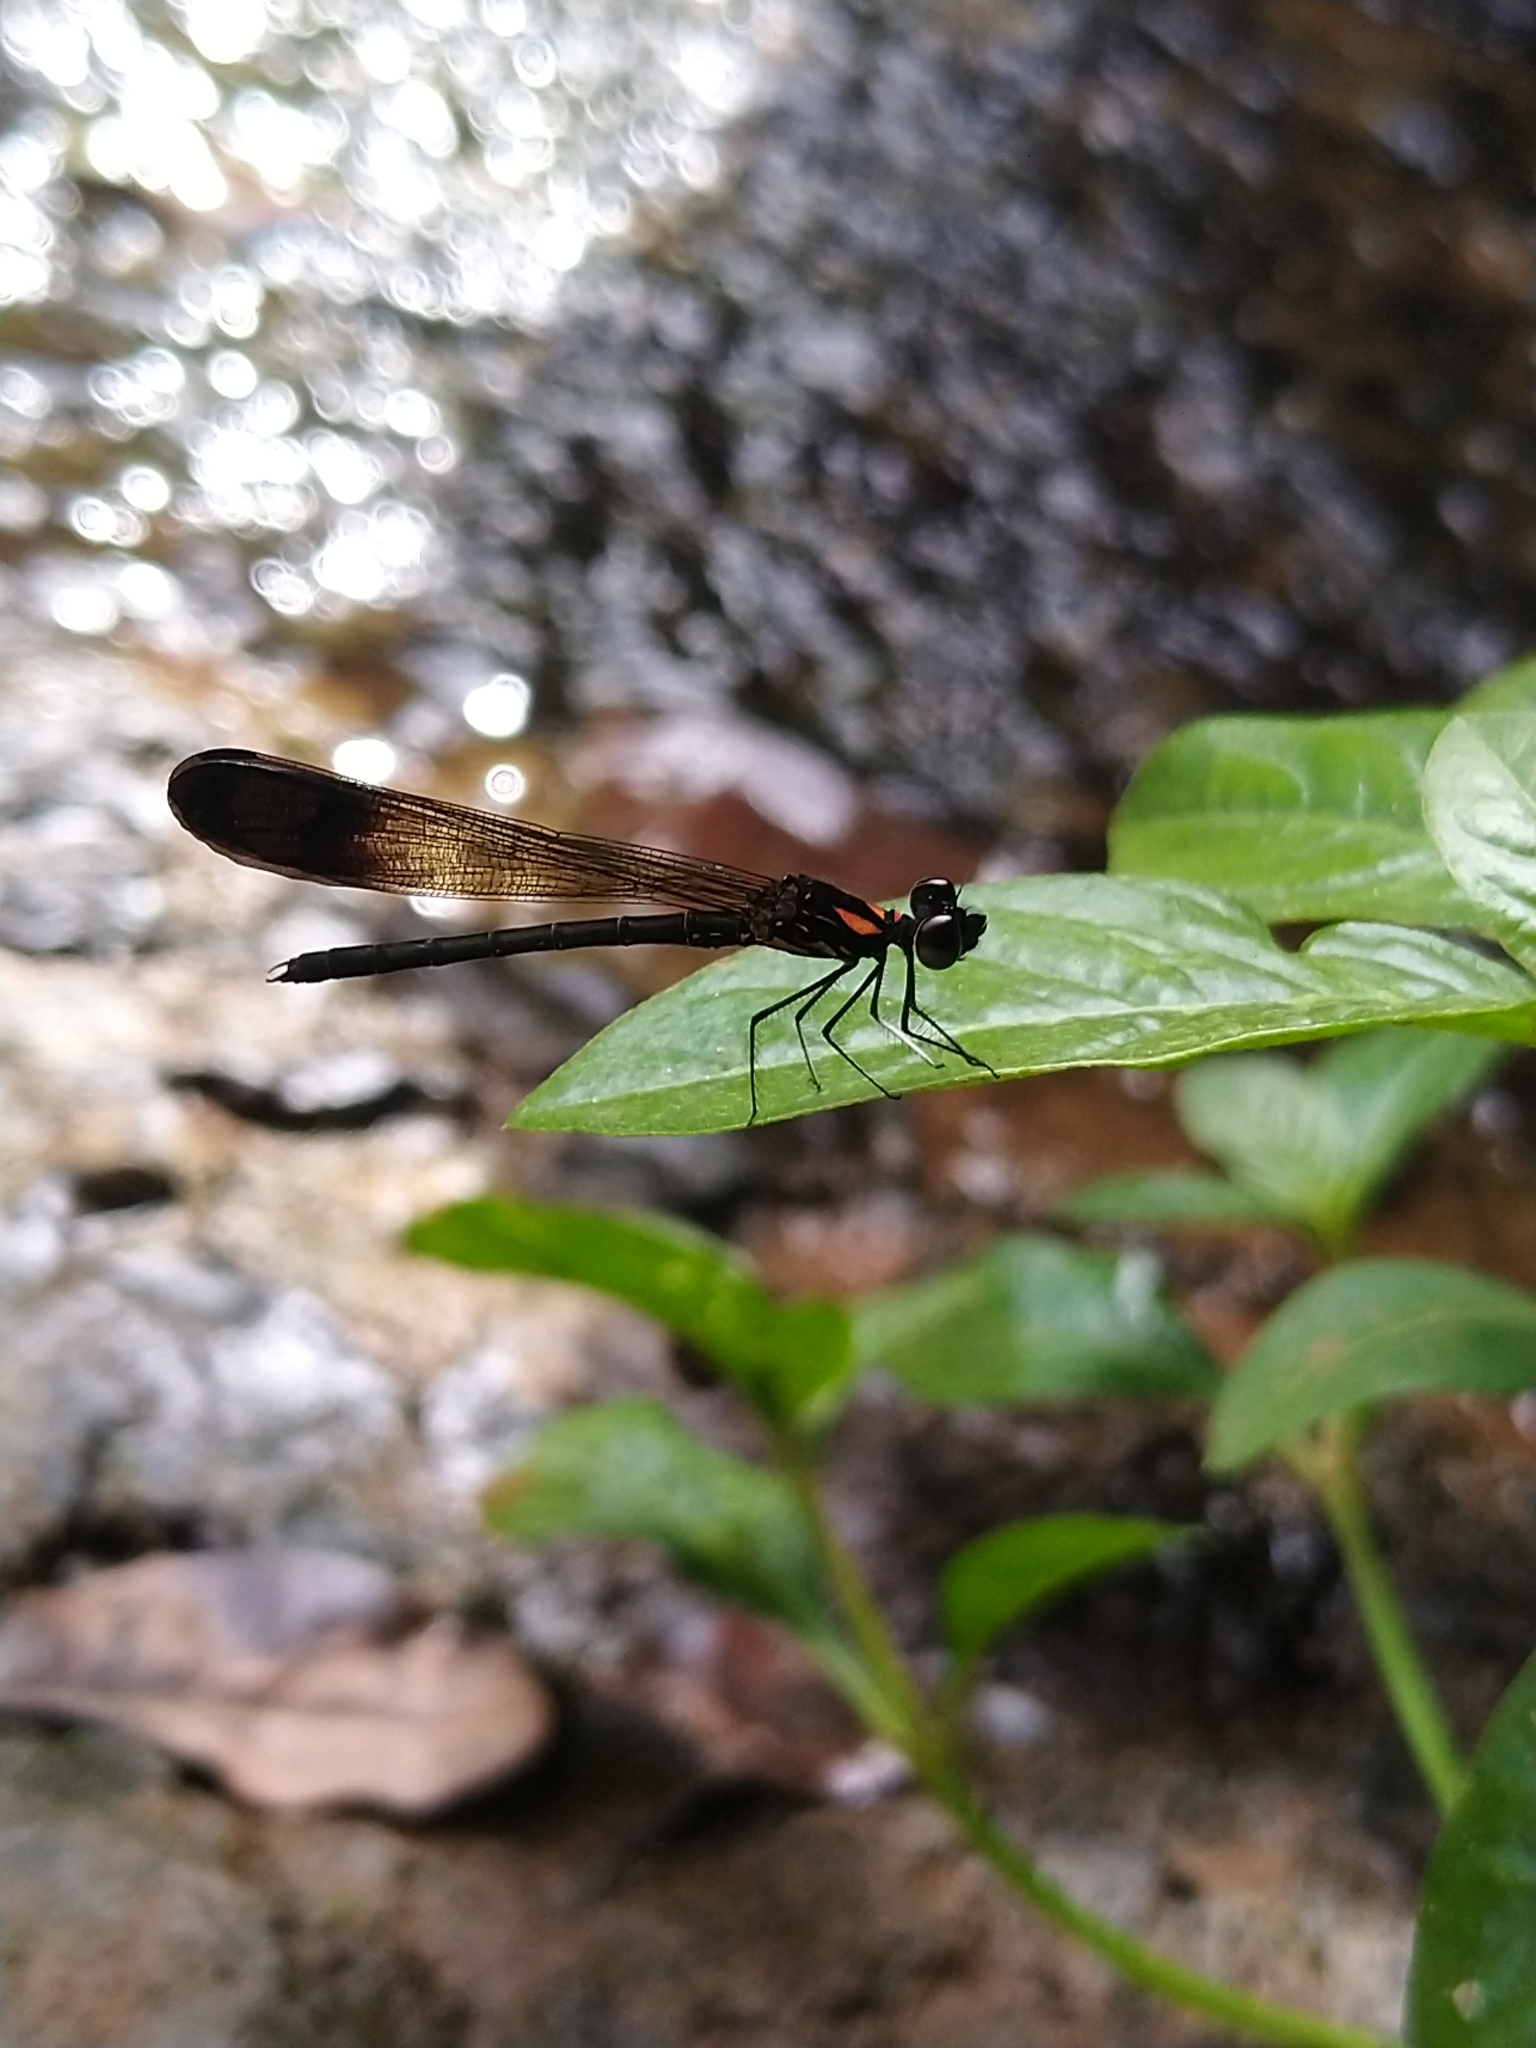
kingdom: Animalia
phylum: Arthropoda
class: Insecta
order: Odonata
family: Chlorocyphidae
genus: Heliocypha
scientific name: Heliocypha bisignata
